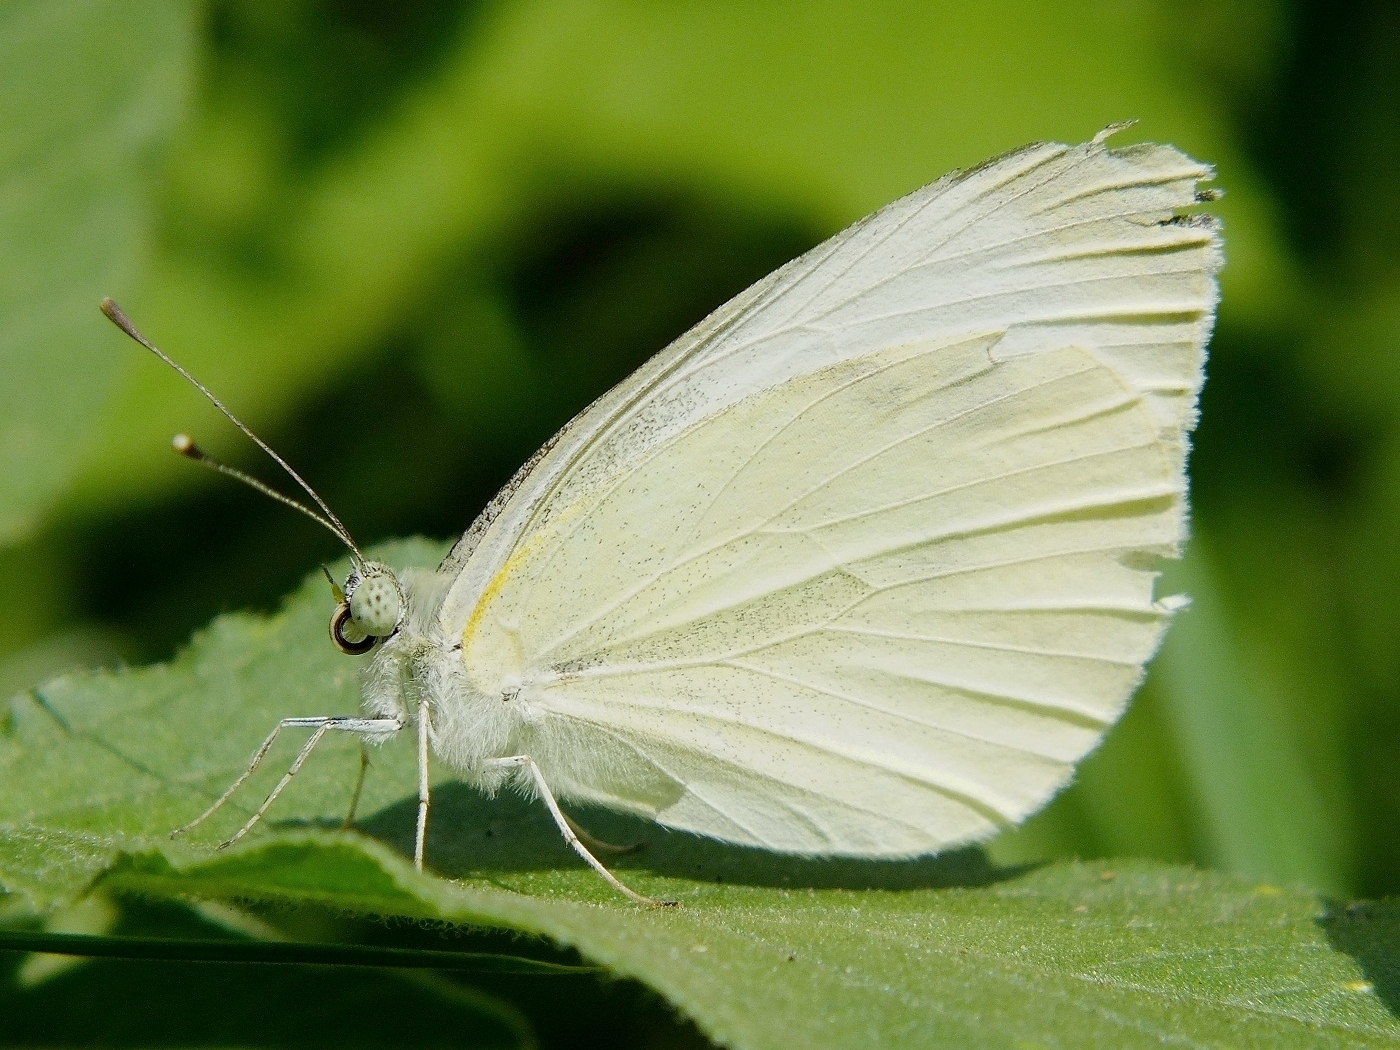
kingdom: Animalia
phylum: Arthropoda
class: Insecta
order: Lepidoptera
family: Pieridae
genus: Pieris
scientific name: Pieris rapae
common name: Small white
